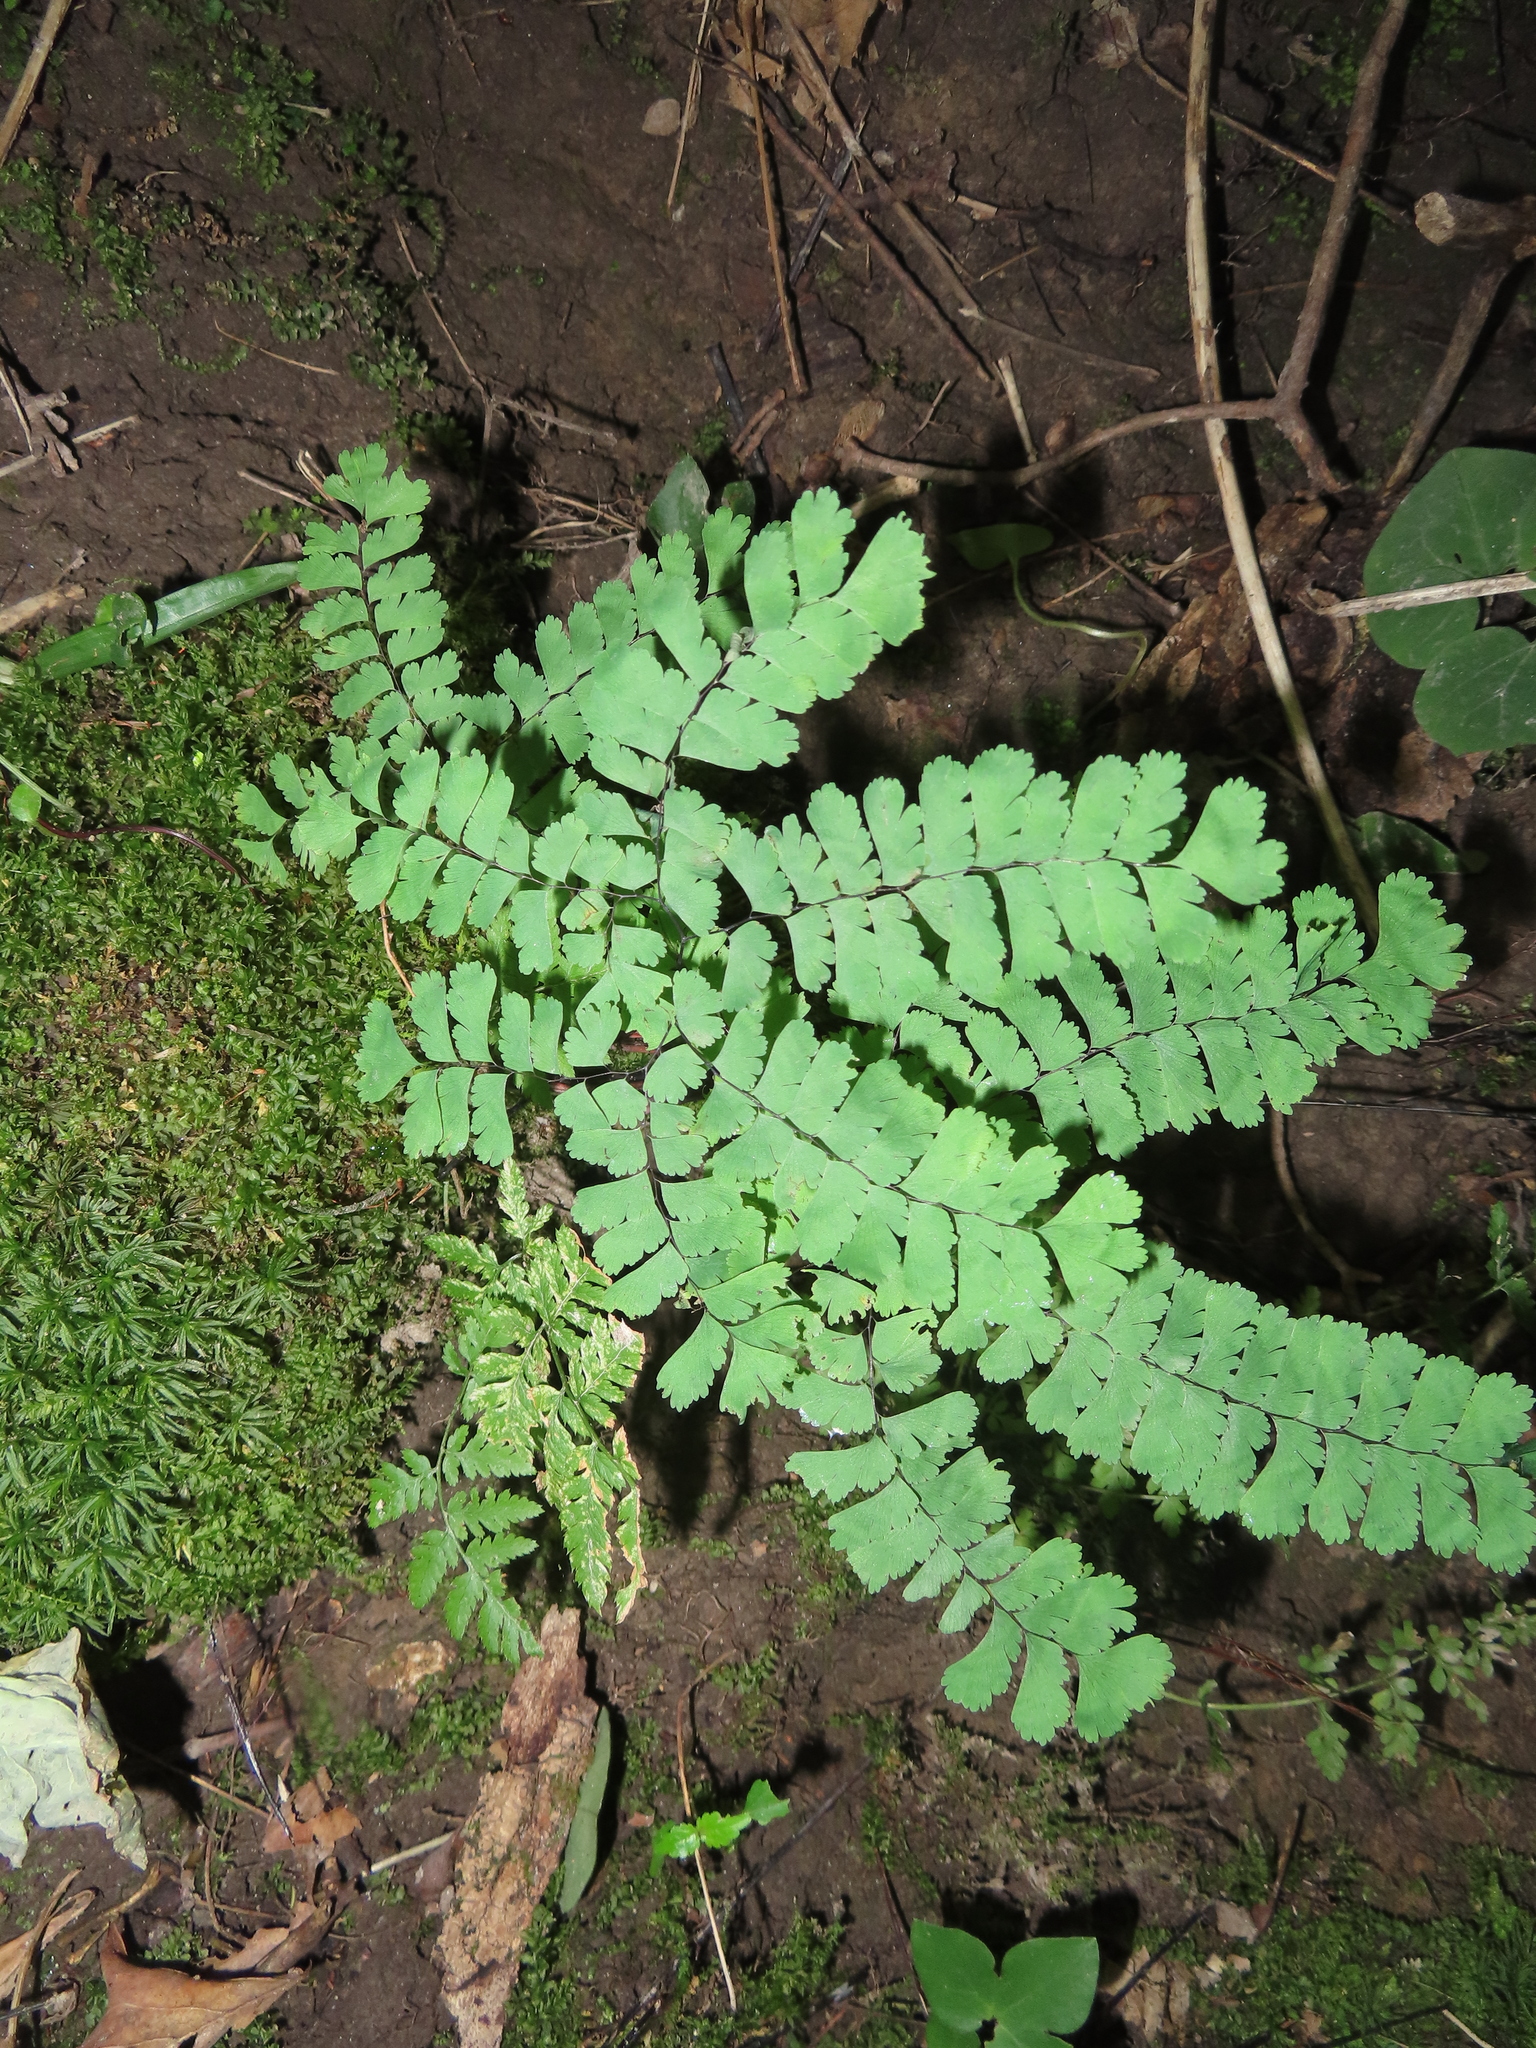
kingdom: Plantae
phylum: Tracheophyta
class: Polypodiopsida
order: Polypodiales
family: Pteridaceae
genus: Adiantum
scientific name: Adiantum pedatum
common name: Five-finger fern
